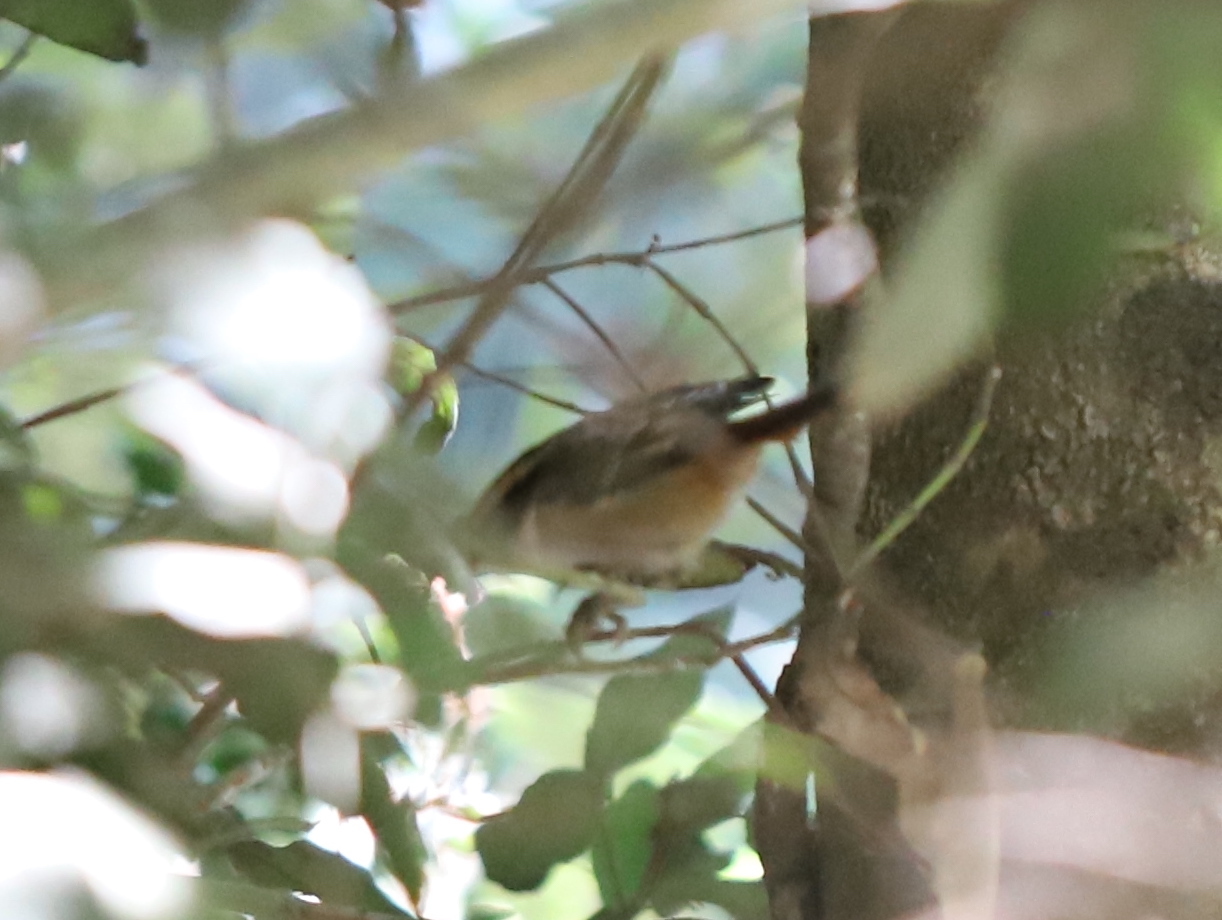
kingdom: Animalia
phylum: Chordata
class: Aves
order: Passeriformes
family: Furnariidae
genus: Aphrastura
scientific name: Aphrastura spinicauda
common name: Thorn-tailed rayadito
